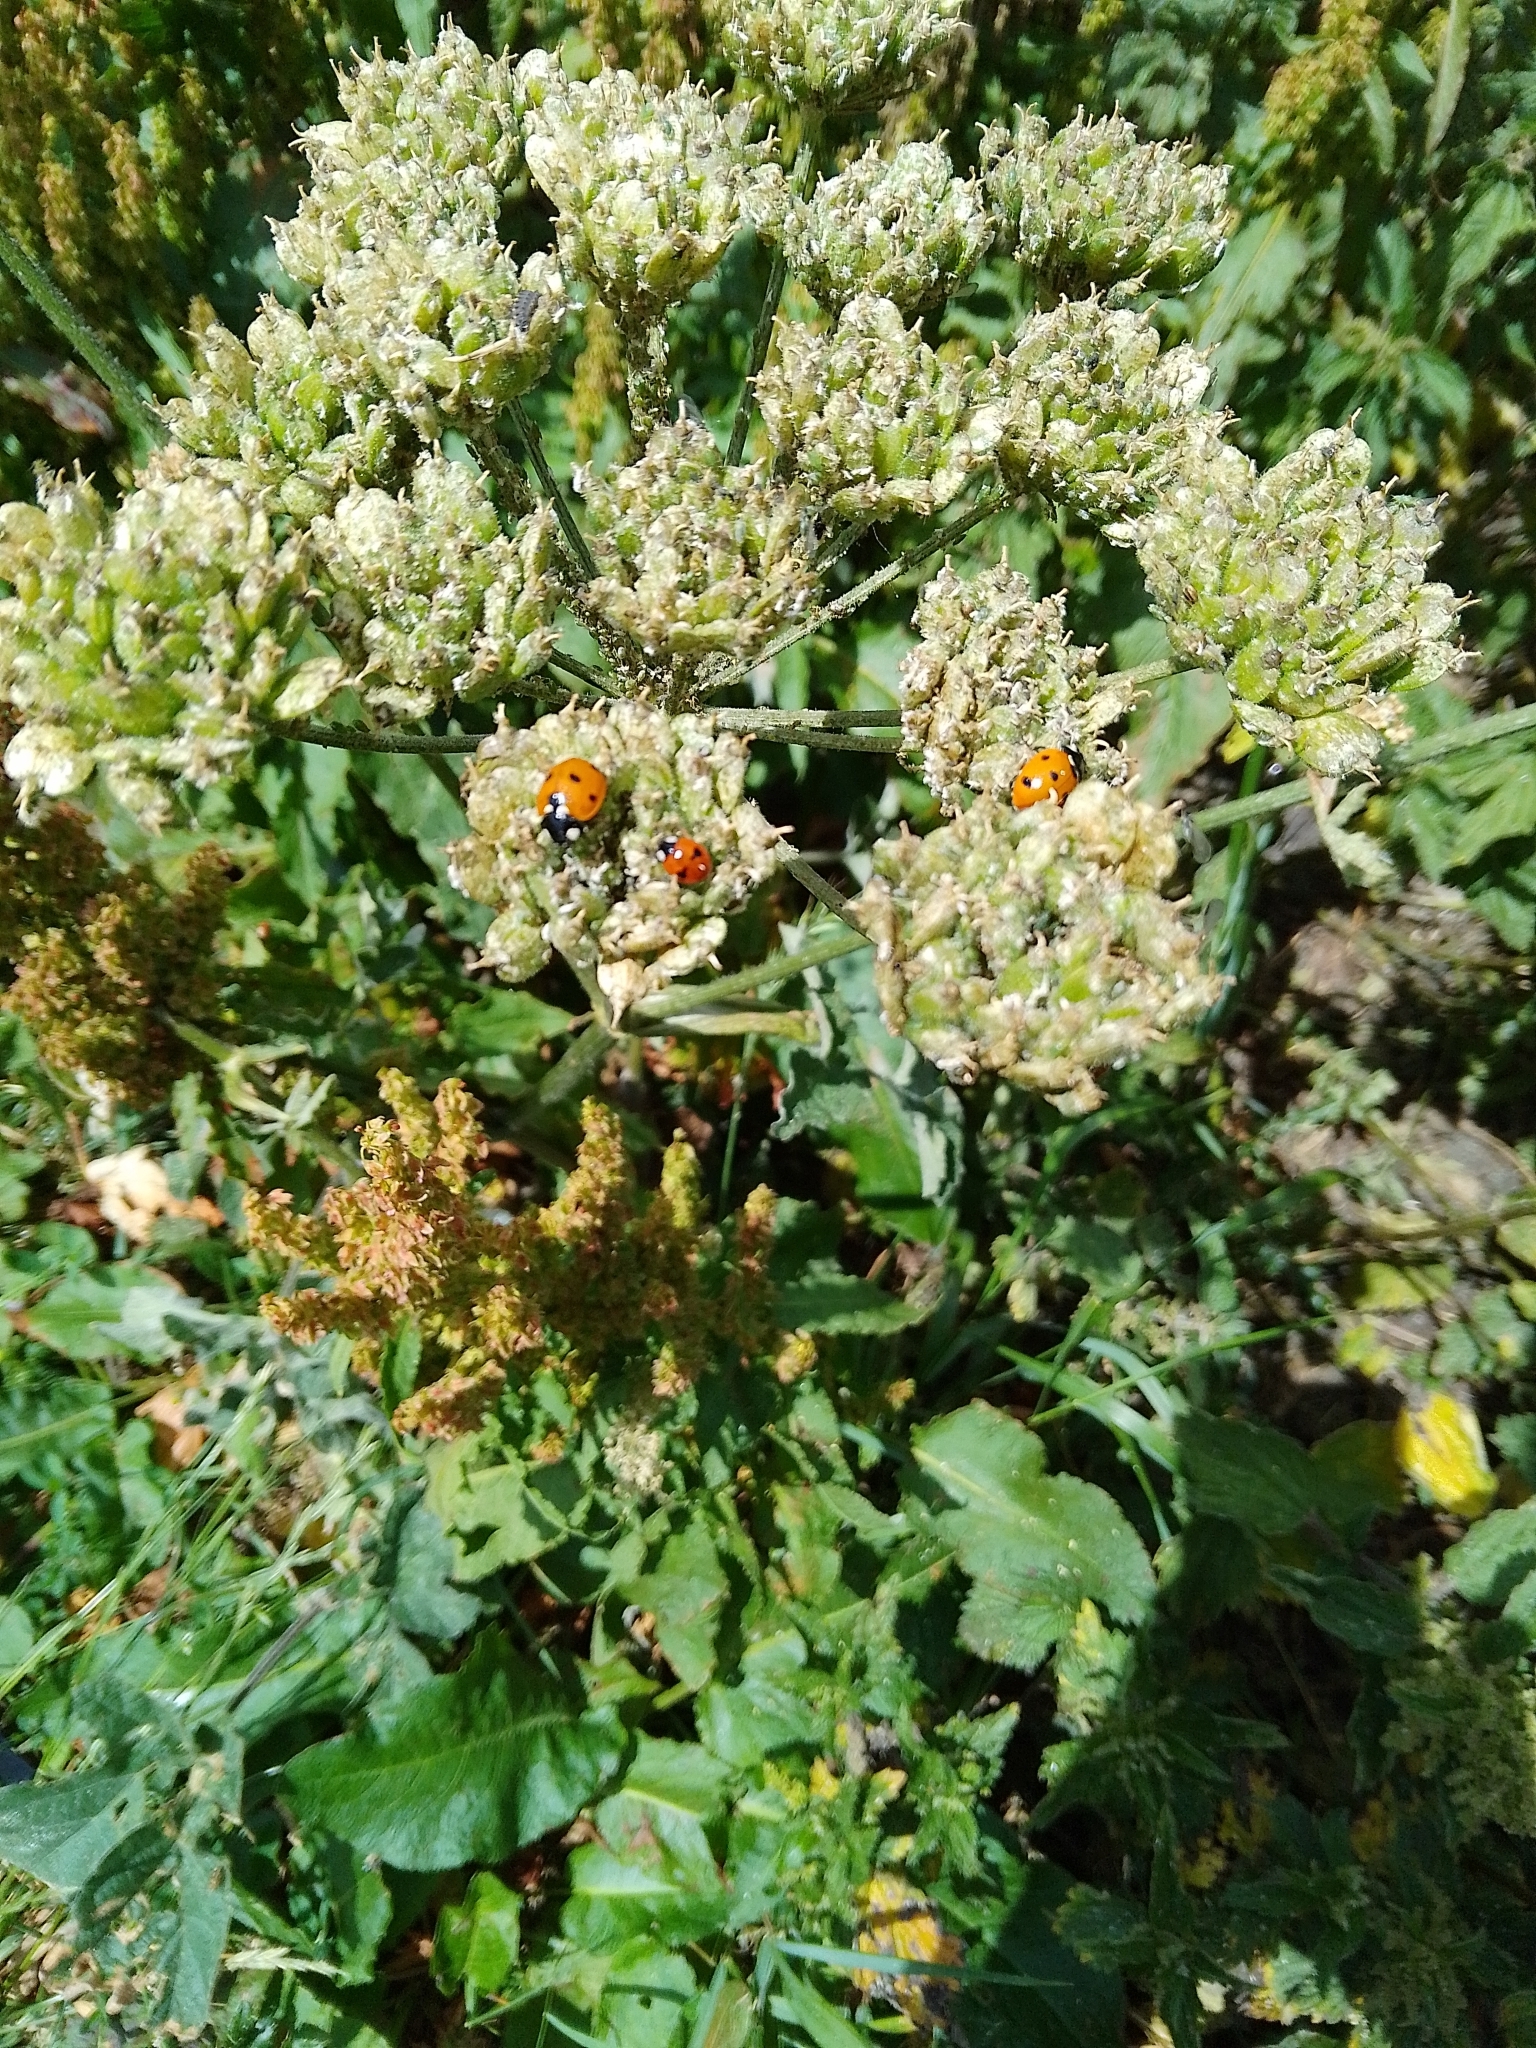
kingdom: Animalia
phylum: Arthropoda
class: Insecta
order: Coleoptera
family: Coccinellidae
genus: Coccinella
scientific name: Coccinella septempunctata
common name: Sevenspotted lady beetle
